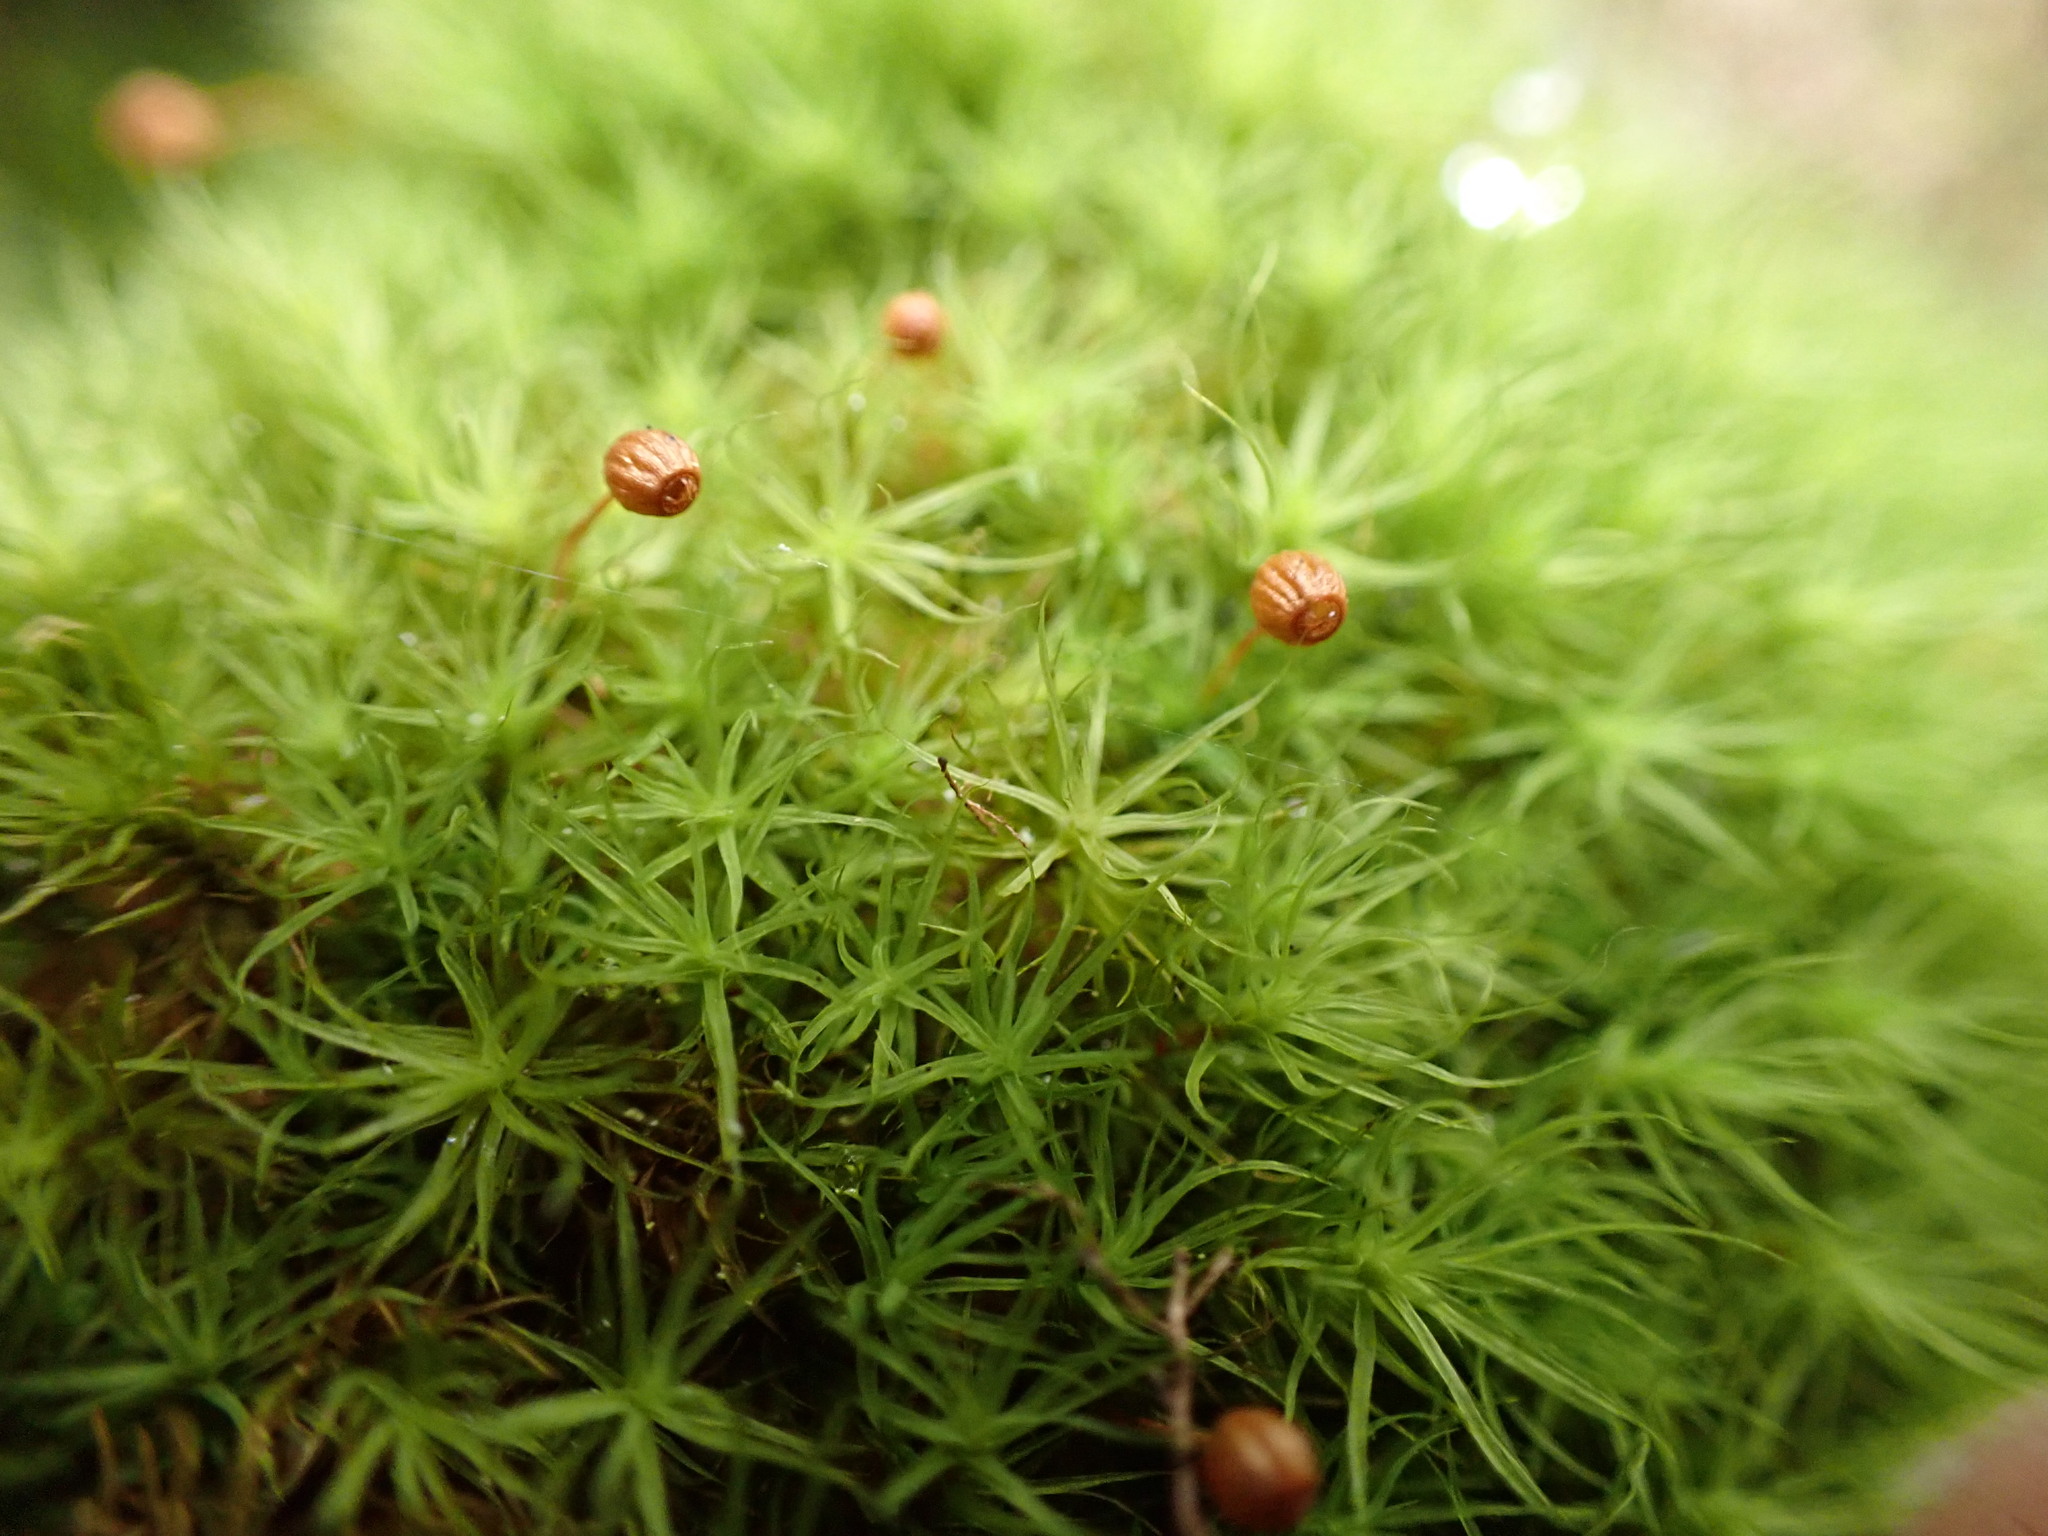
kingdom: Plantae
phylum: Bryophyta
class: Bryopsida
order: Bartramiales
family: Bartramiaceae
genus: Bartramia
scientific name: Bartramia ithyphylla
